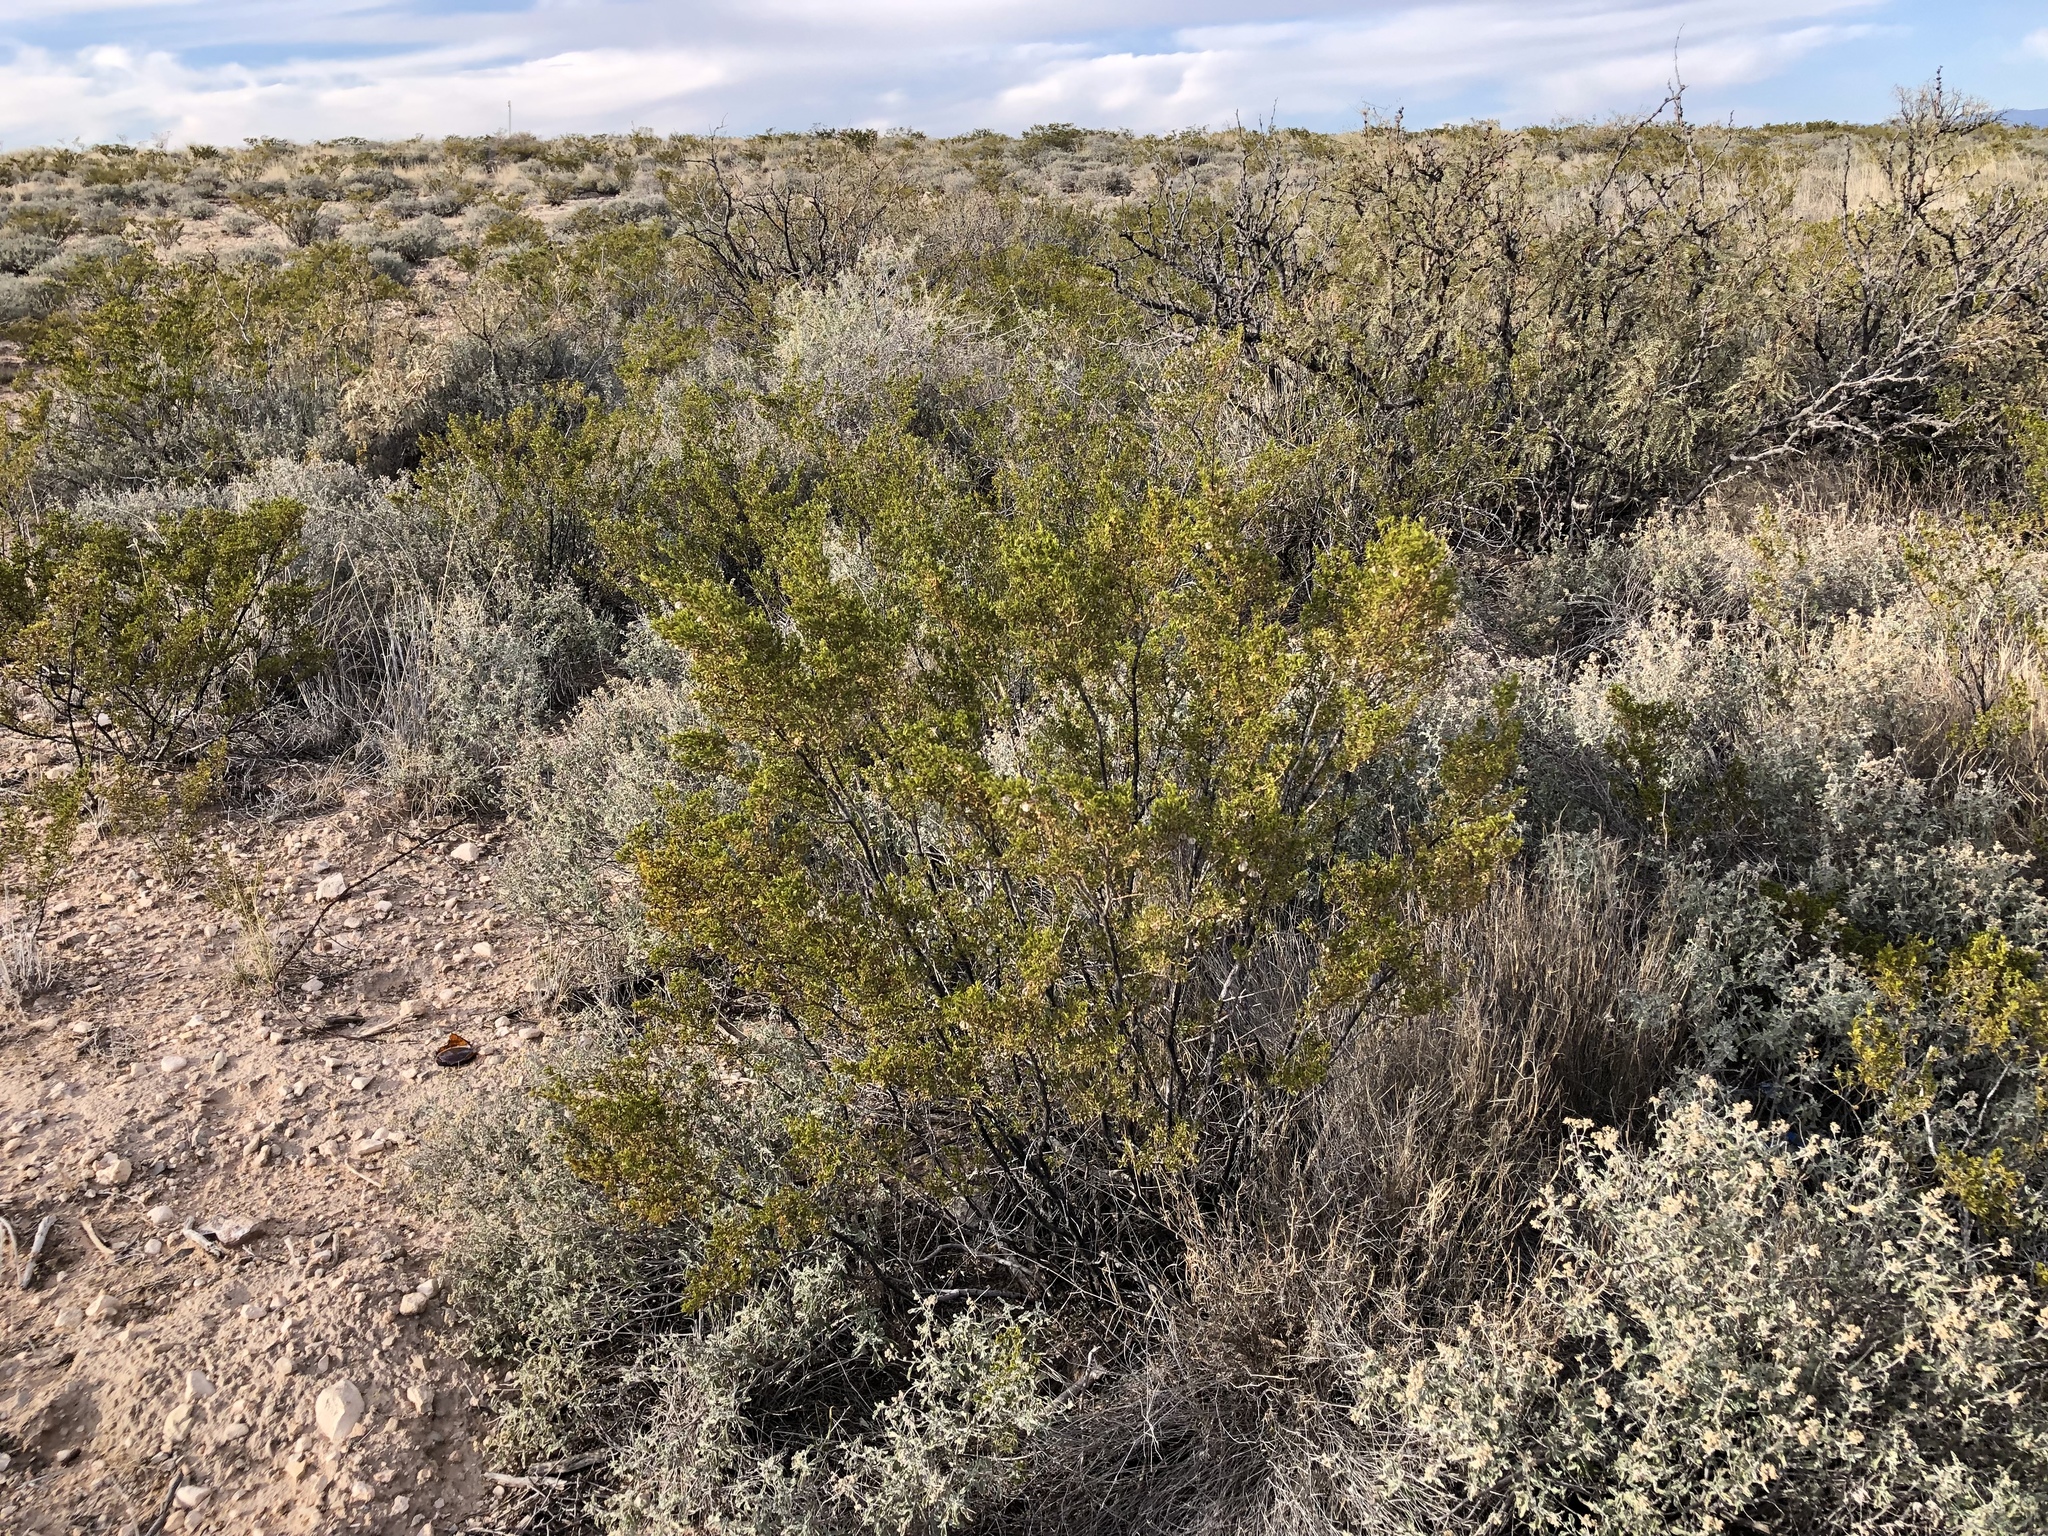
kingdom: Plantae
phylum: Tracheophyta
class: Magnoliopsida
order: Zygophyllales
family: Zygophyllaceae
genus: Larrea
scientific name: Larrea tridentata
